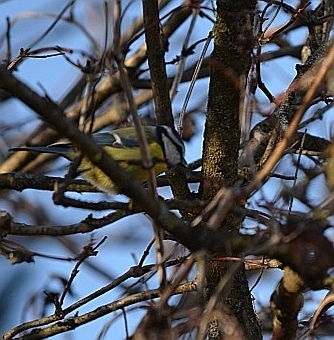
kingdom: Animalia
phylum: Chordata
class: Aves
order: Passeriformes
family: Paridae
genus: Cyanistes
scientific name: Cyanistes caeruleus
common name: Eurasian blue tit
